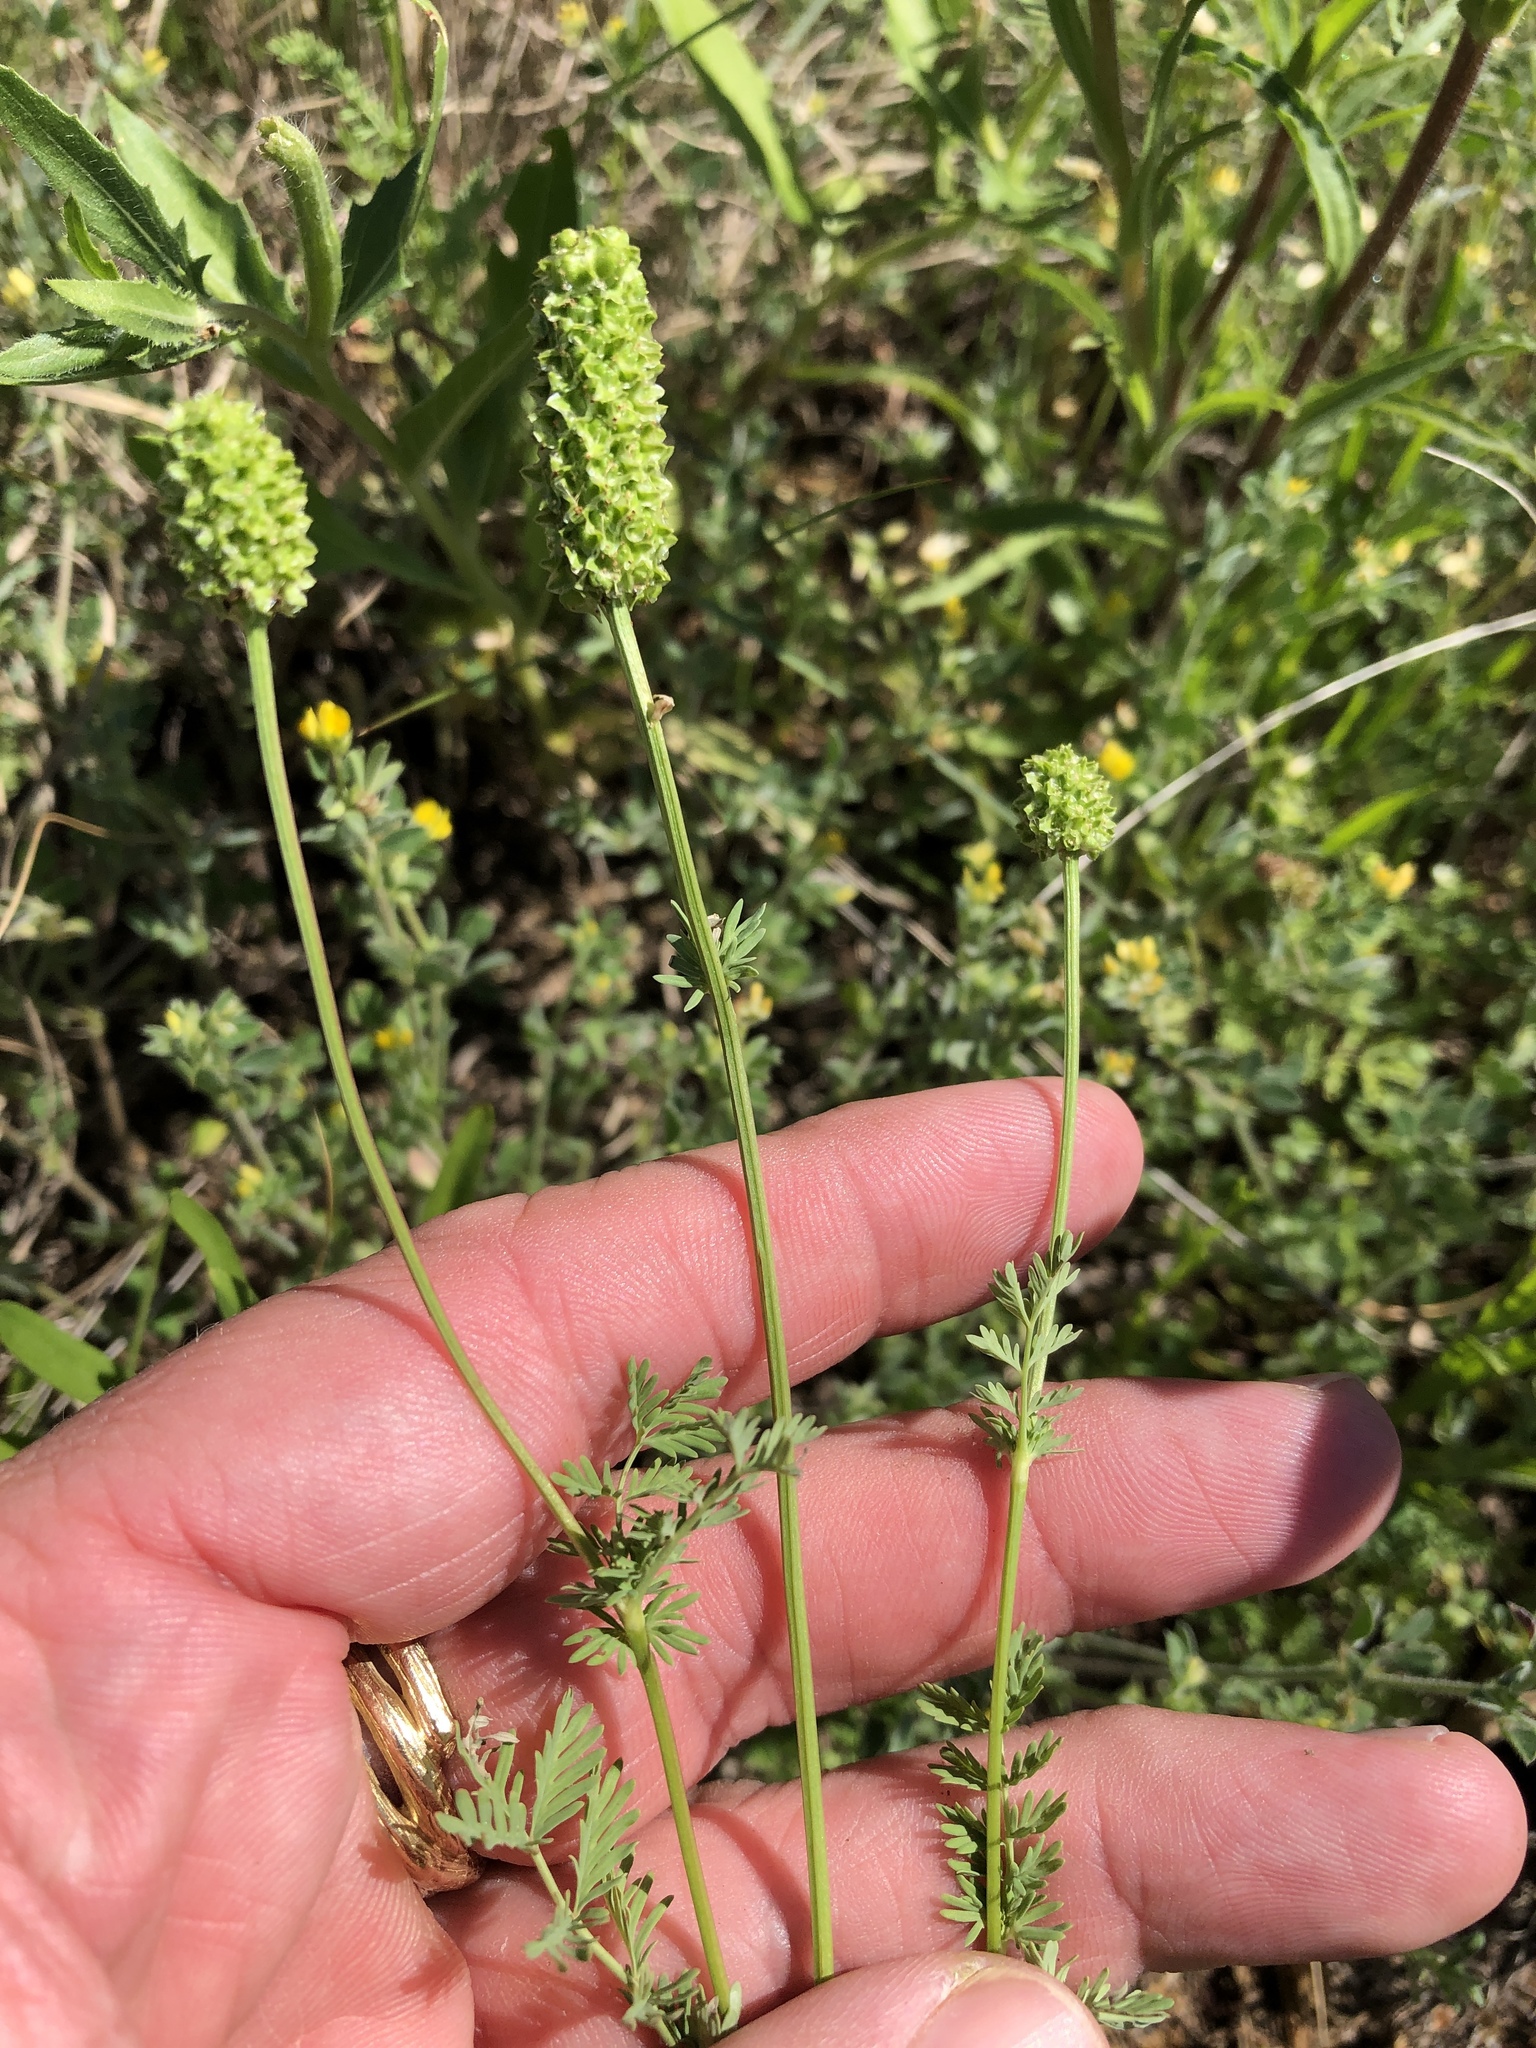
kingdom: Plantae
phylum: Tracheophyta
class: Magnoliopsida
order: Rosales
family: Rosaceae
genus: Poteridium
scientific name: Poteridium annuum
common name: Annual burnet
